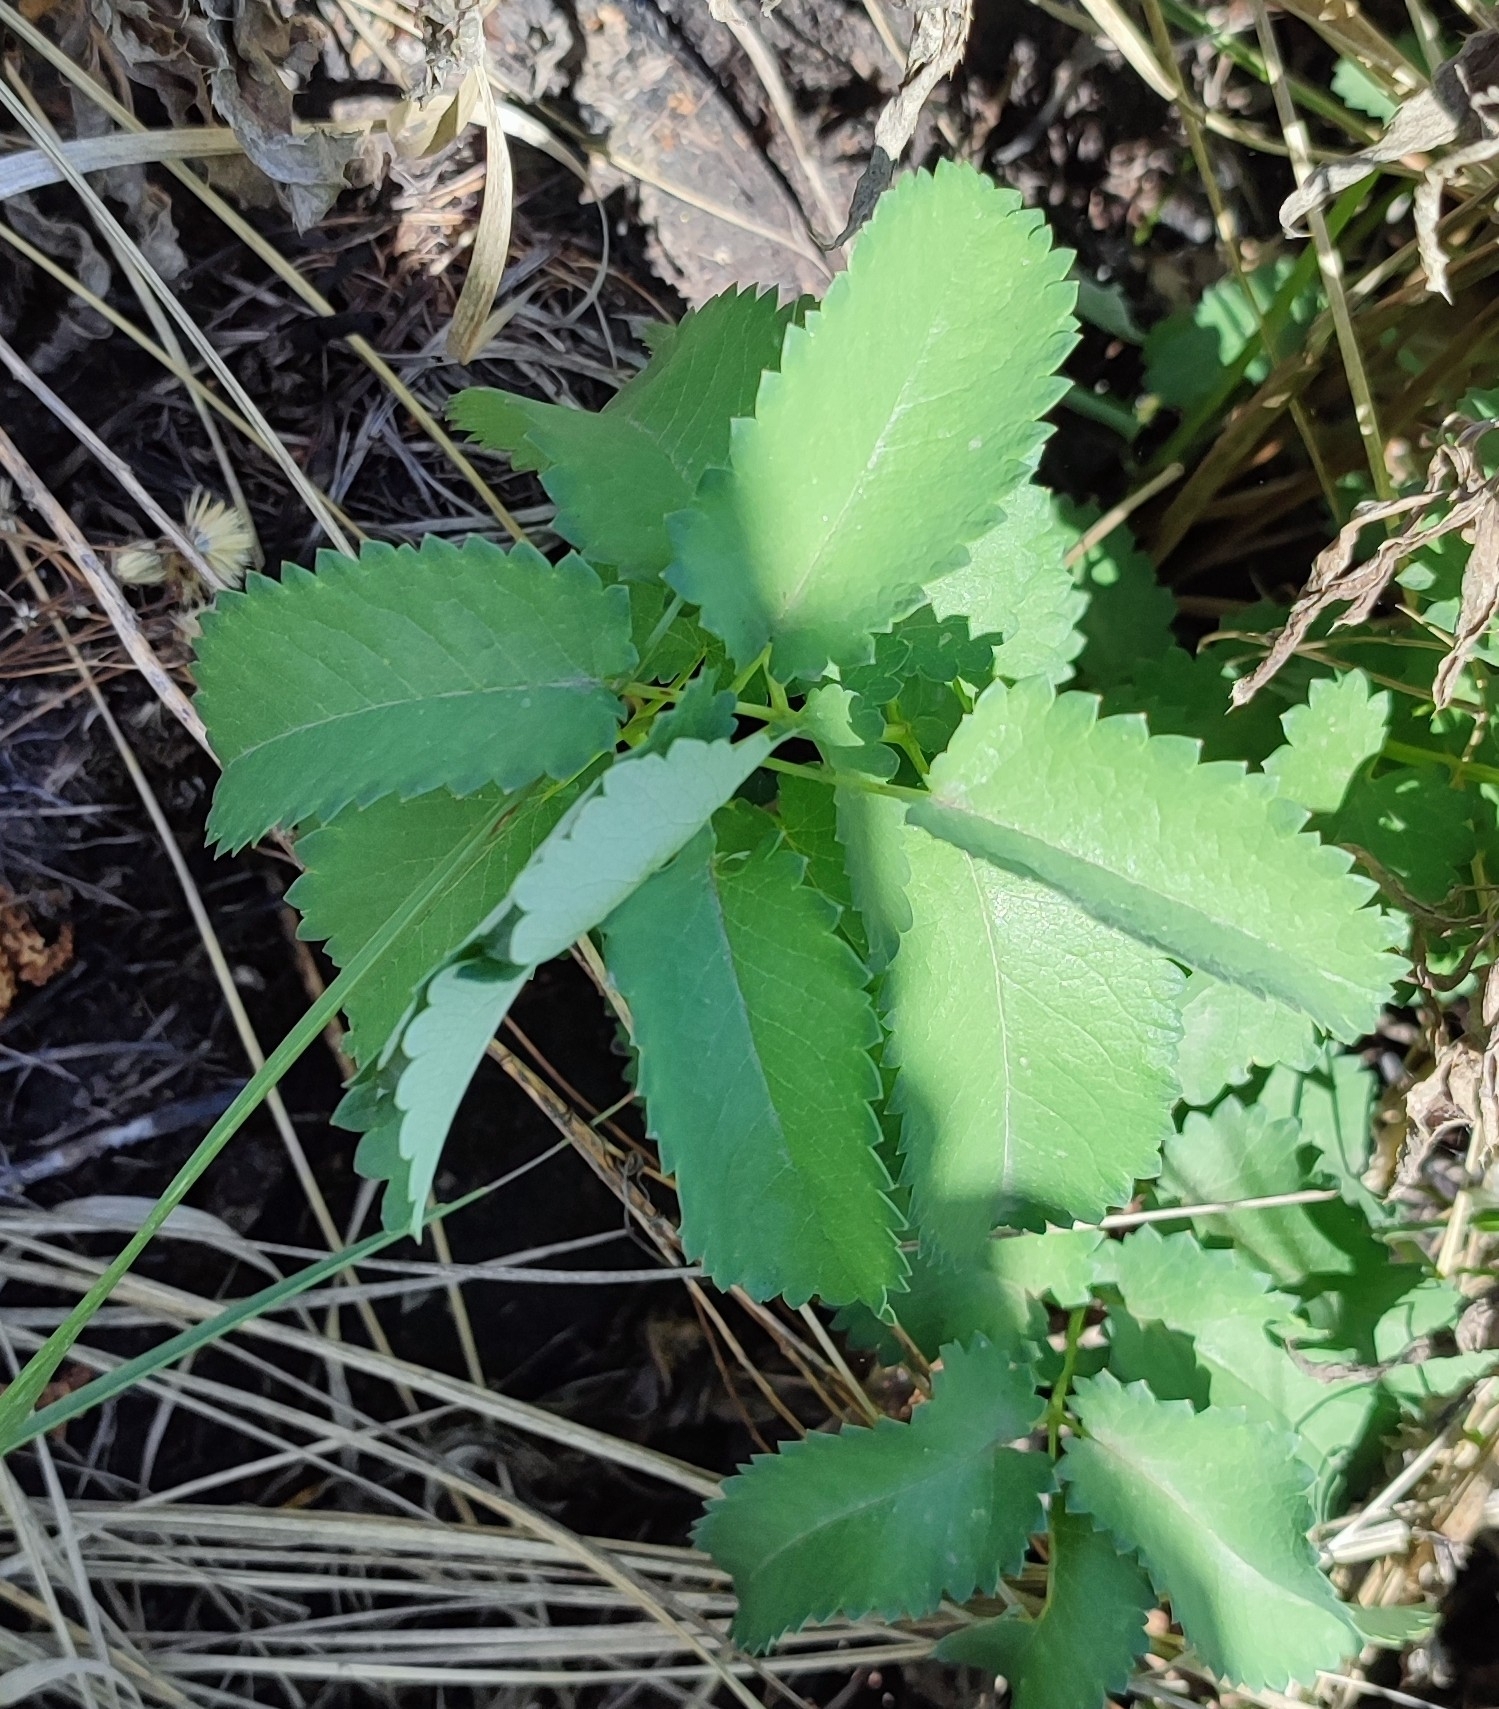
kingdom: Plantae
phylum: Tracheophyta
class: Magnoliopsida
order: Rosales
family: Rosaceae
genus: Sanguisorba
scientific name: Sanguisorba officinalis
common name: Great burnet
